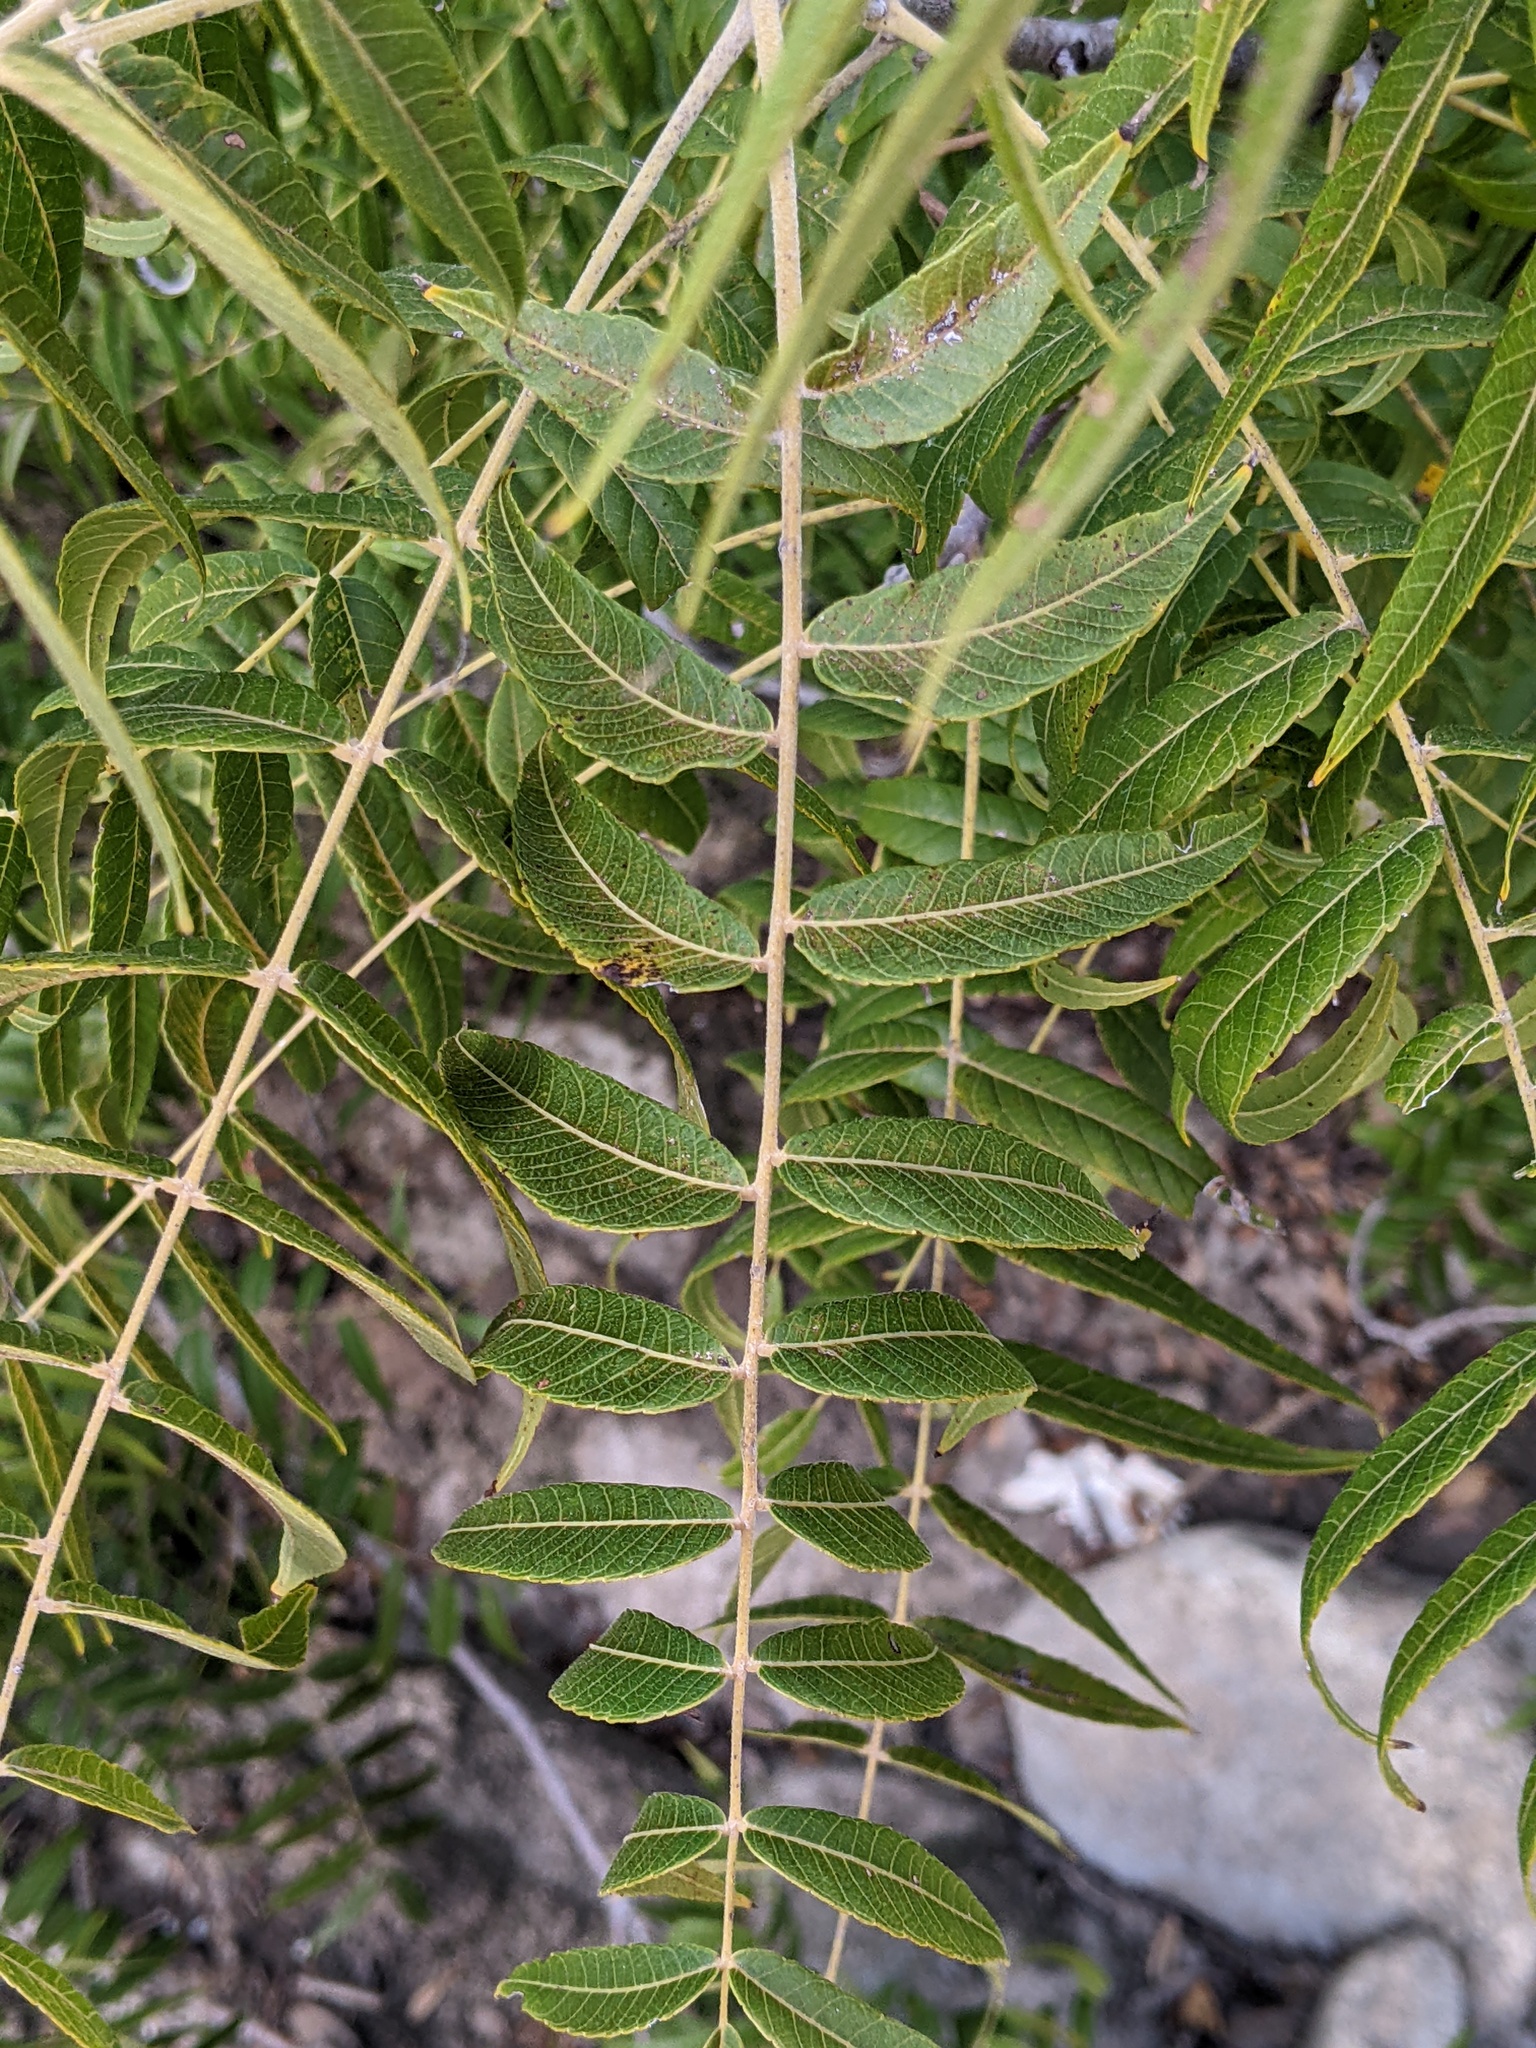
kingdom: Plantae
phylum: Tracheophyta
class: Magnoliopsida
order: Fagales
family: Juglandaceae
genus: Juglans
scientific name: Juglans microcarpa
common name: Texas walnut
